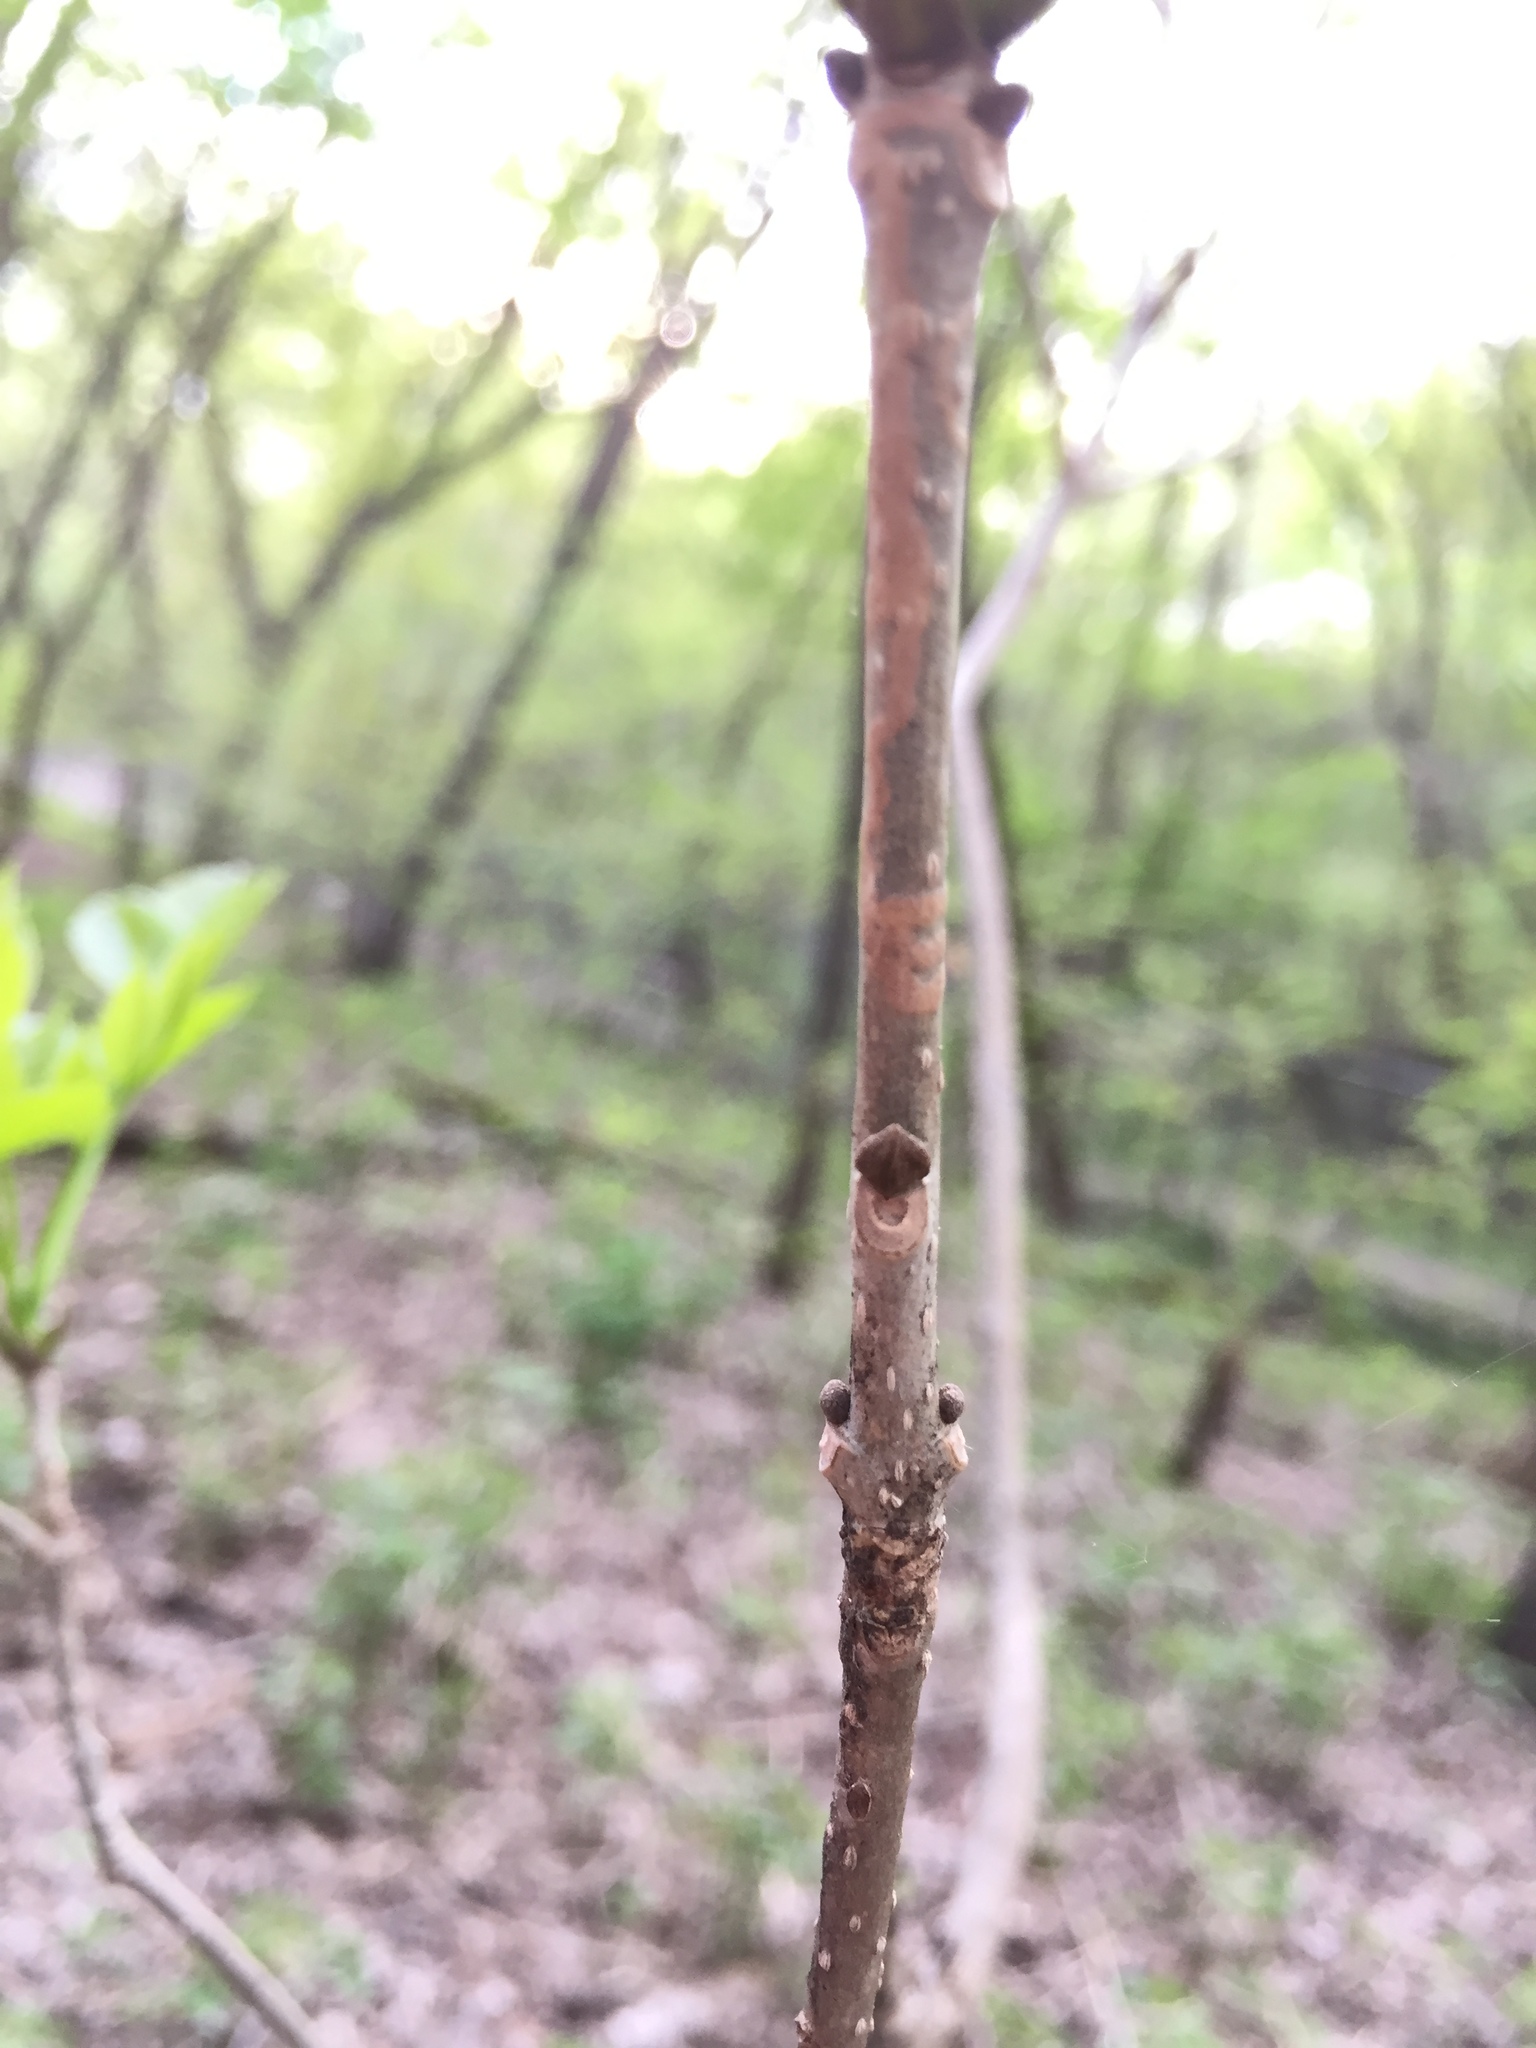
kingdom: Plantae
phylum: Tracheophyta
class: Magnoliopsida
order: Lamiales
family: Oleaceae
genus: Fraxinus
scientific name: Fraxinus pennsylvanica
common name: Green ash
